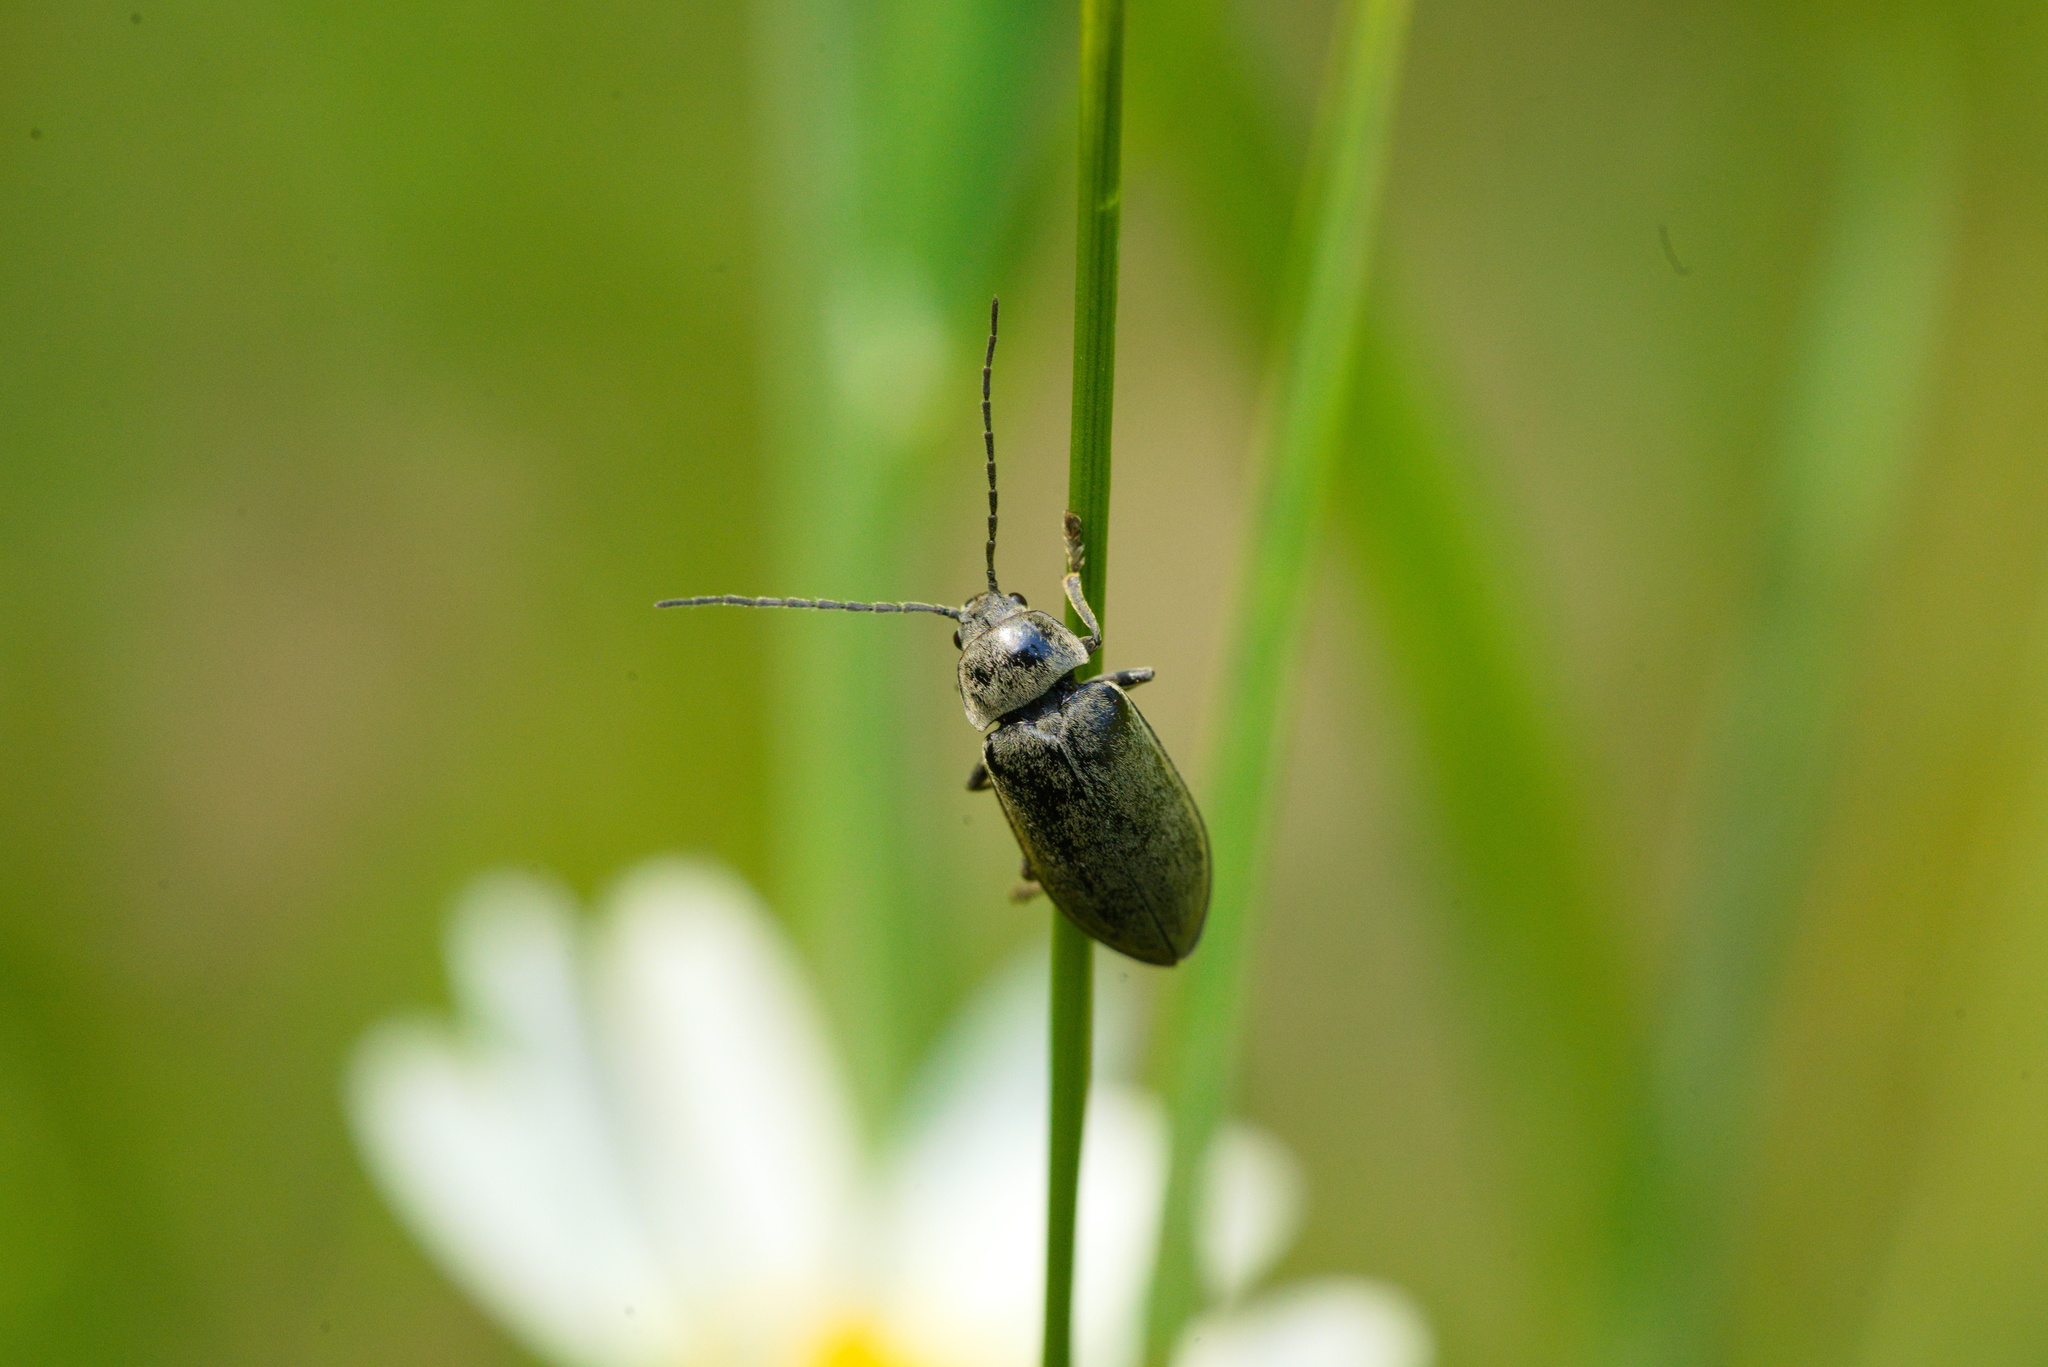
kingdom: Animalia
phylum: Arthropoda
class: Insecta
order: Coleoptera
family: Dascillidae
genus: Dascillus
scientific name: Dascillus cervinus
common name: Orchid beetle
